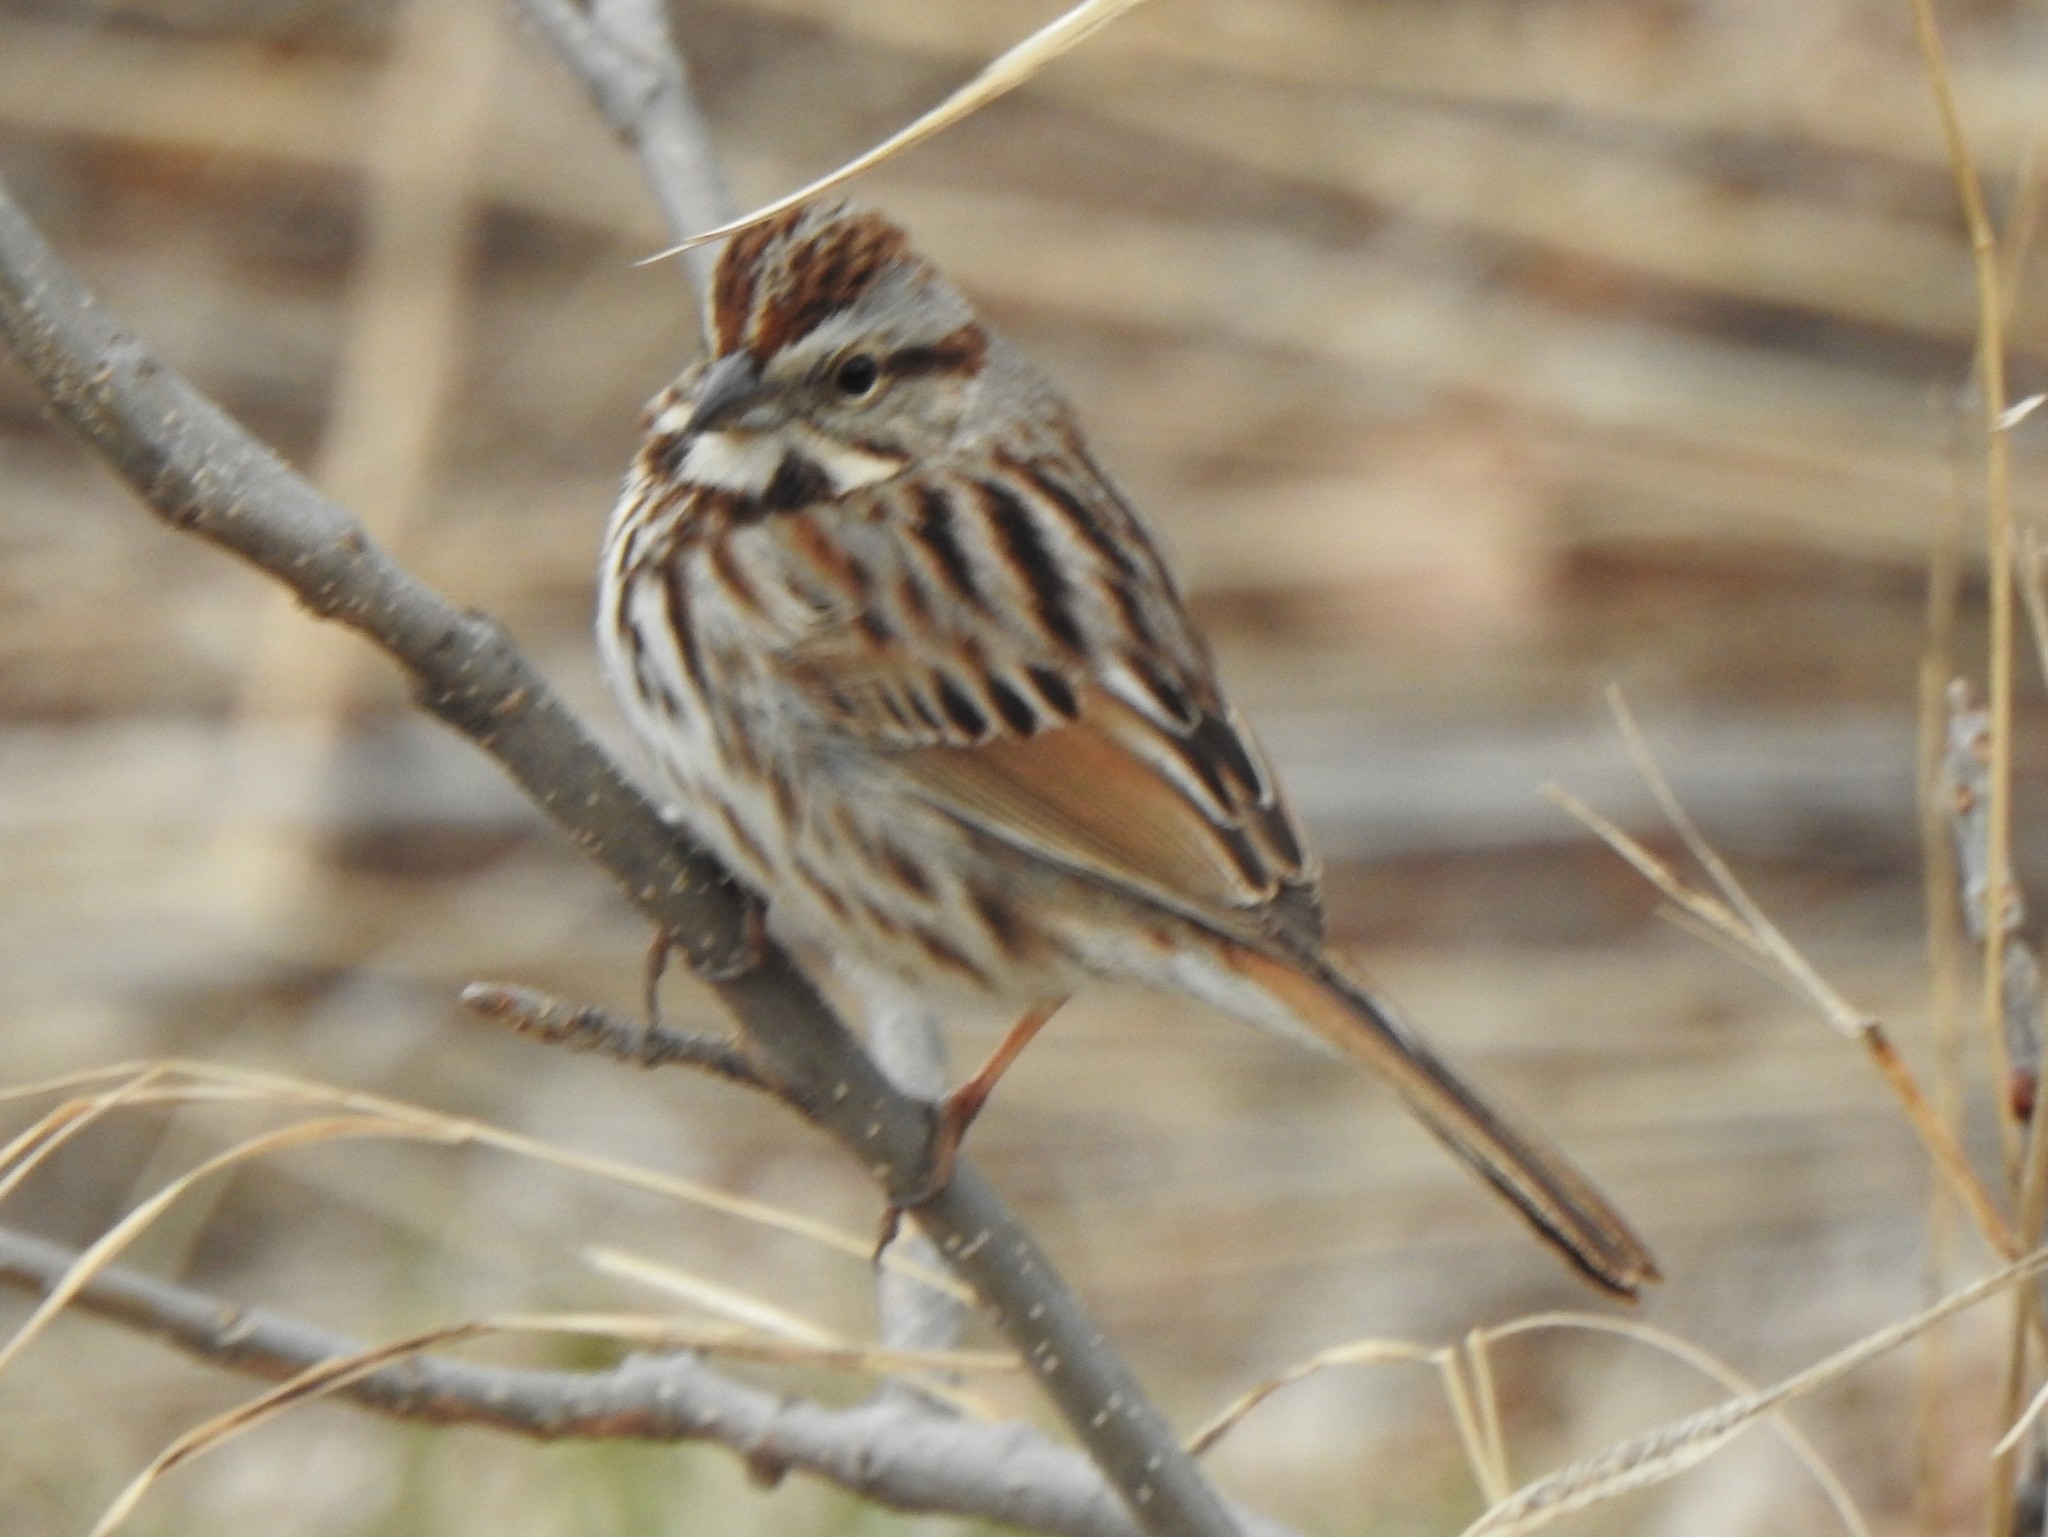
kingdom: Animalia
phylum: Chordata
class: Aves
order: Passeriformes
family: Passerellidae
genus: Melospiza
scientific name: Melospiza melodia
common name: Song sparrow
